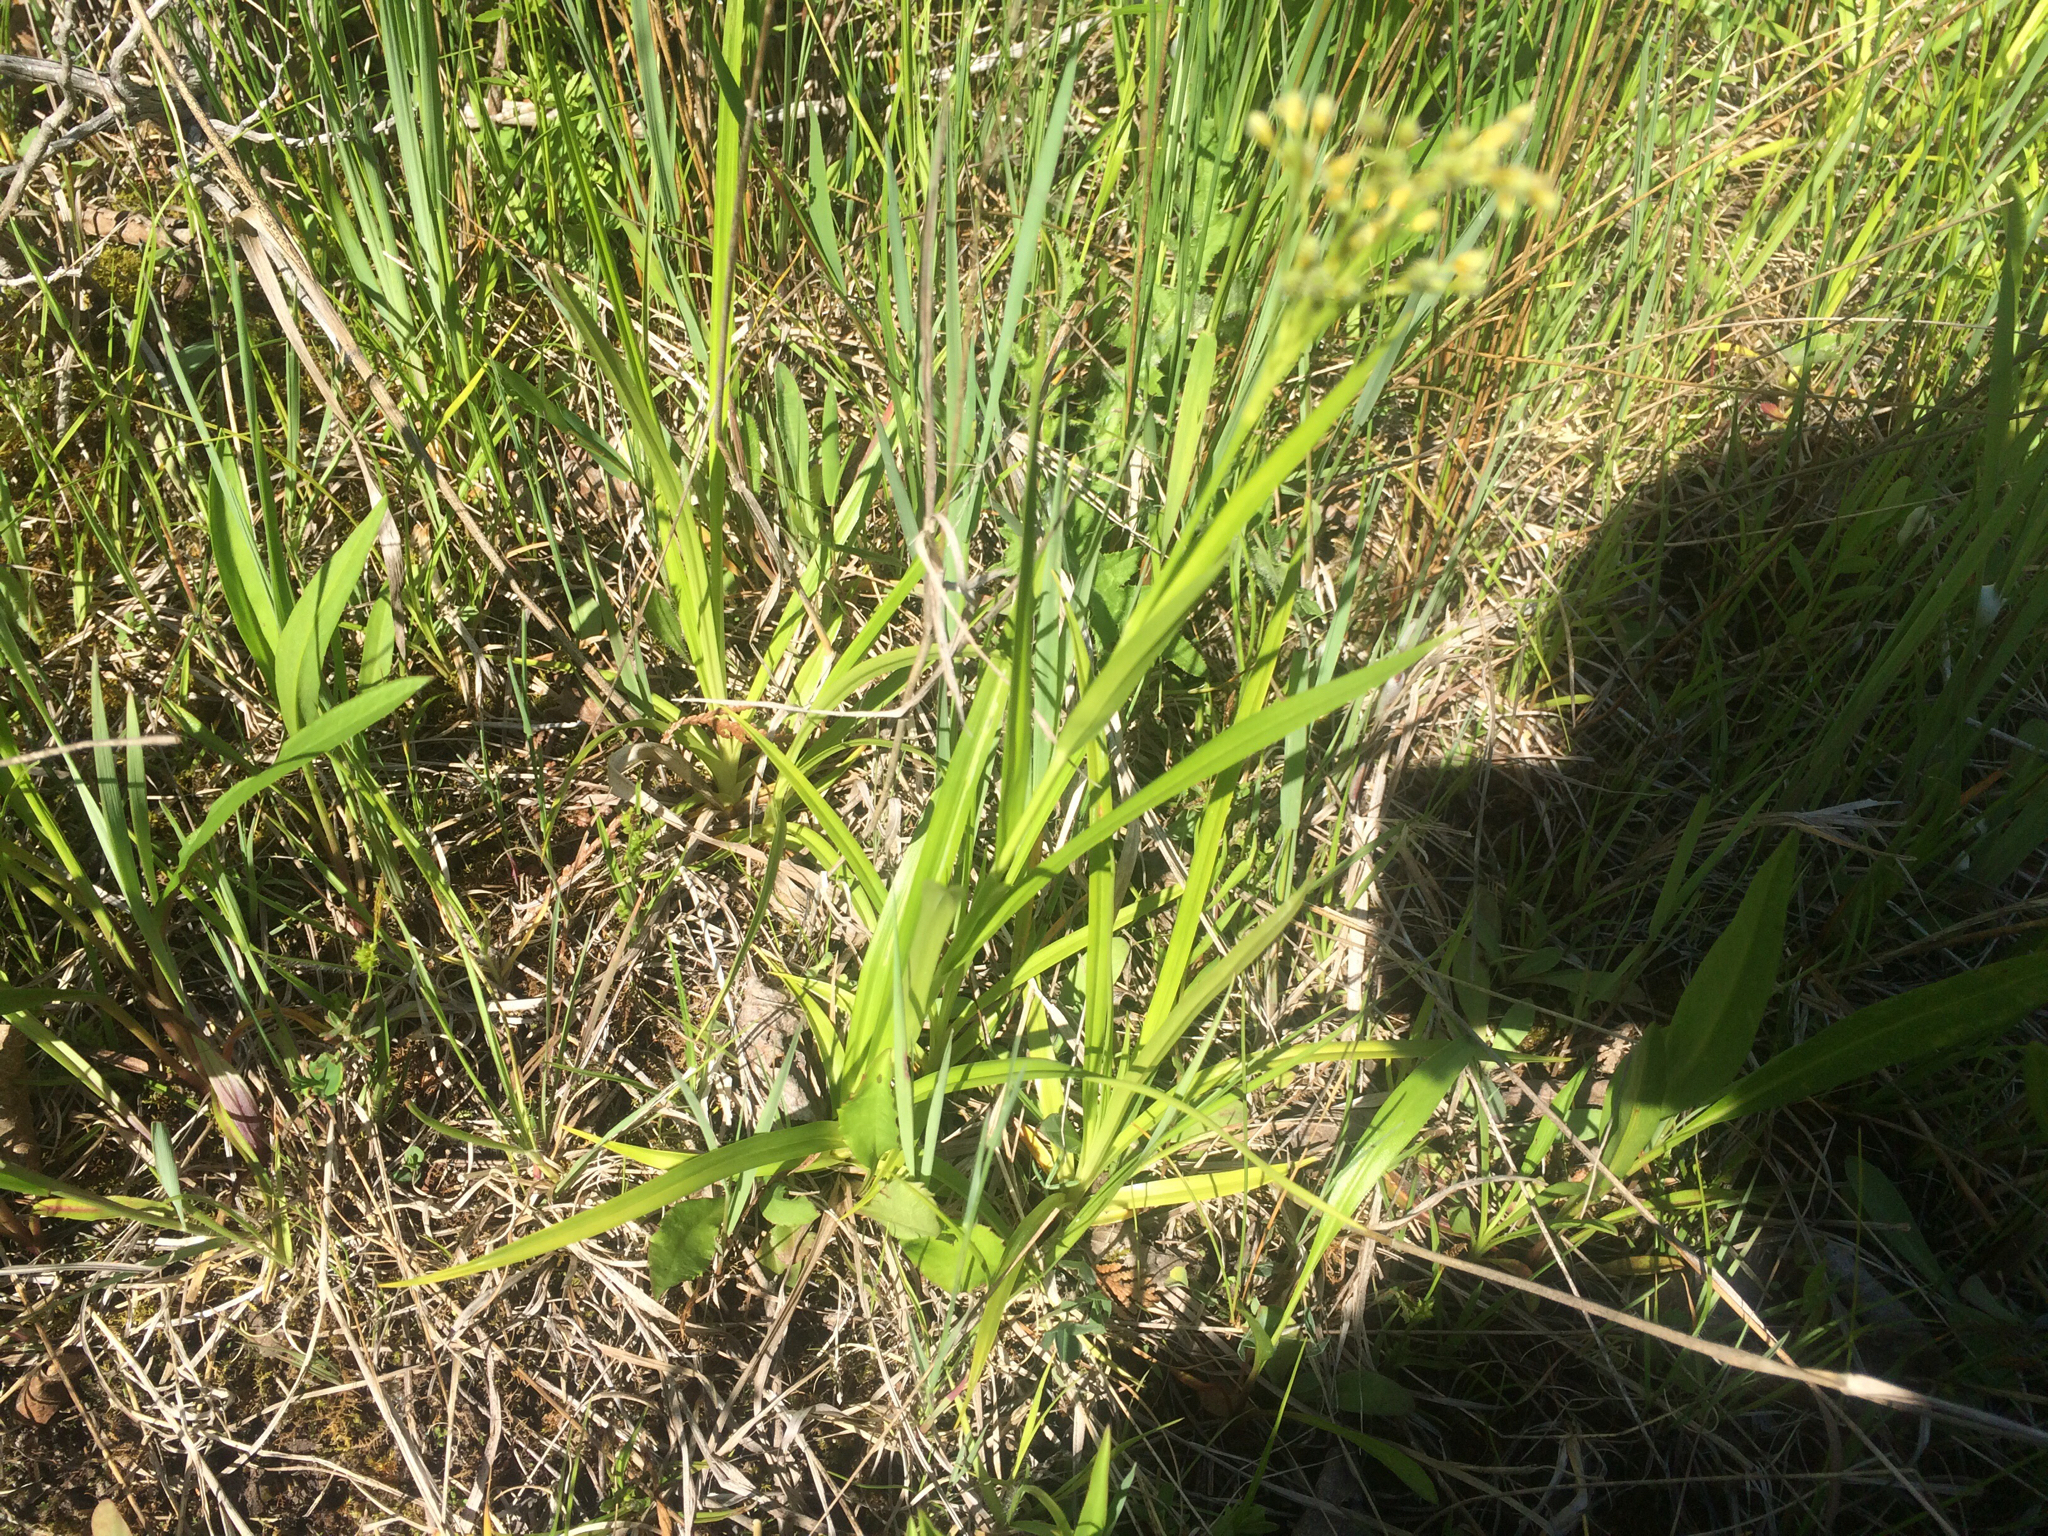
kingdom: Plantae
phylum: Tracheophyta
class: Liliopsida
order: Poales
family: Cyperaceae
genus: Scirpus
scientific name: Scirpus pendulus
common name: Nodding bulrush
